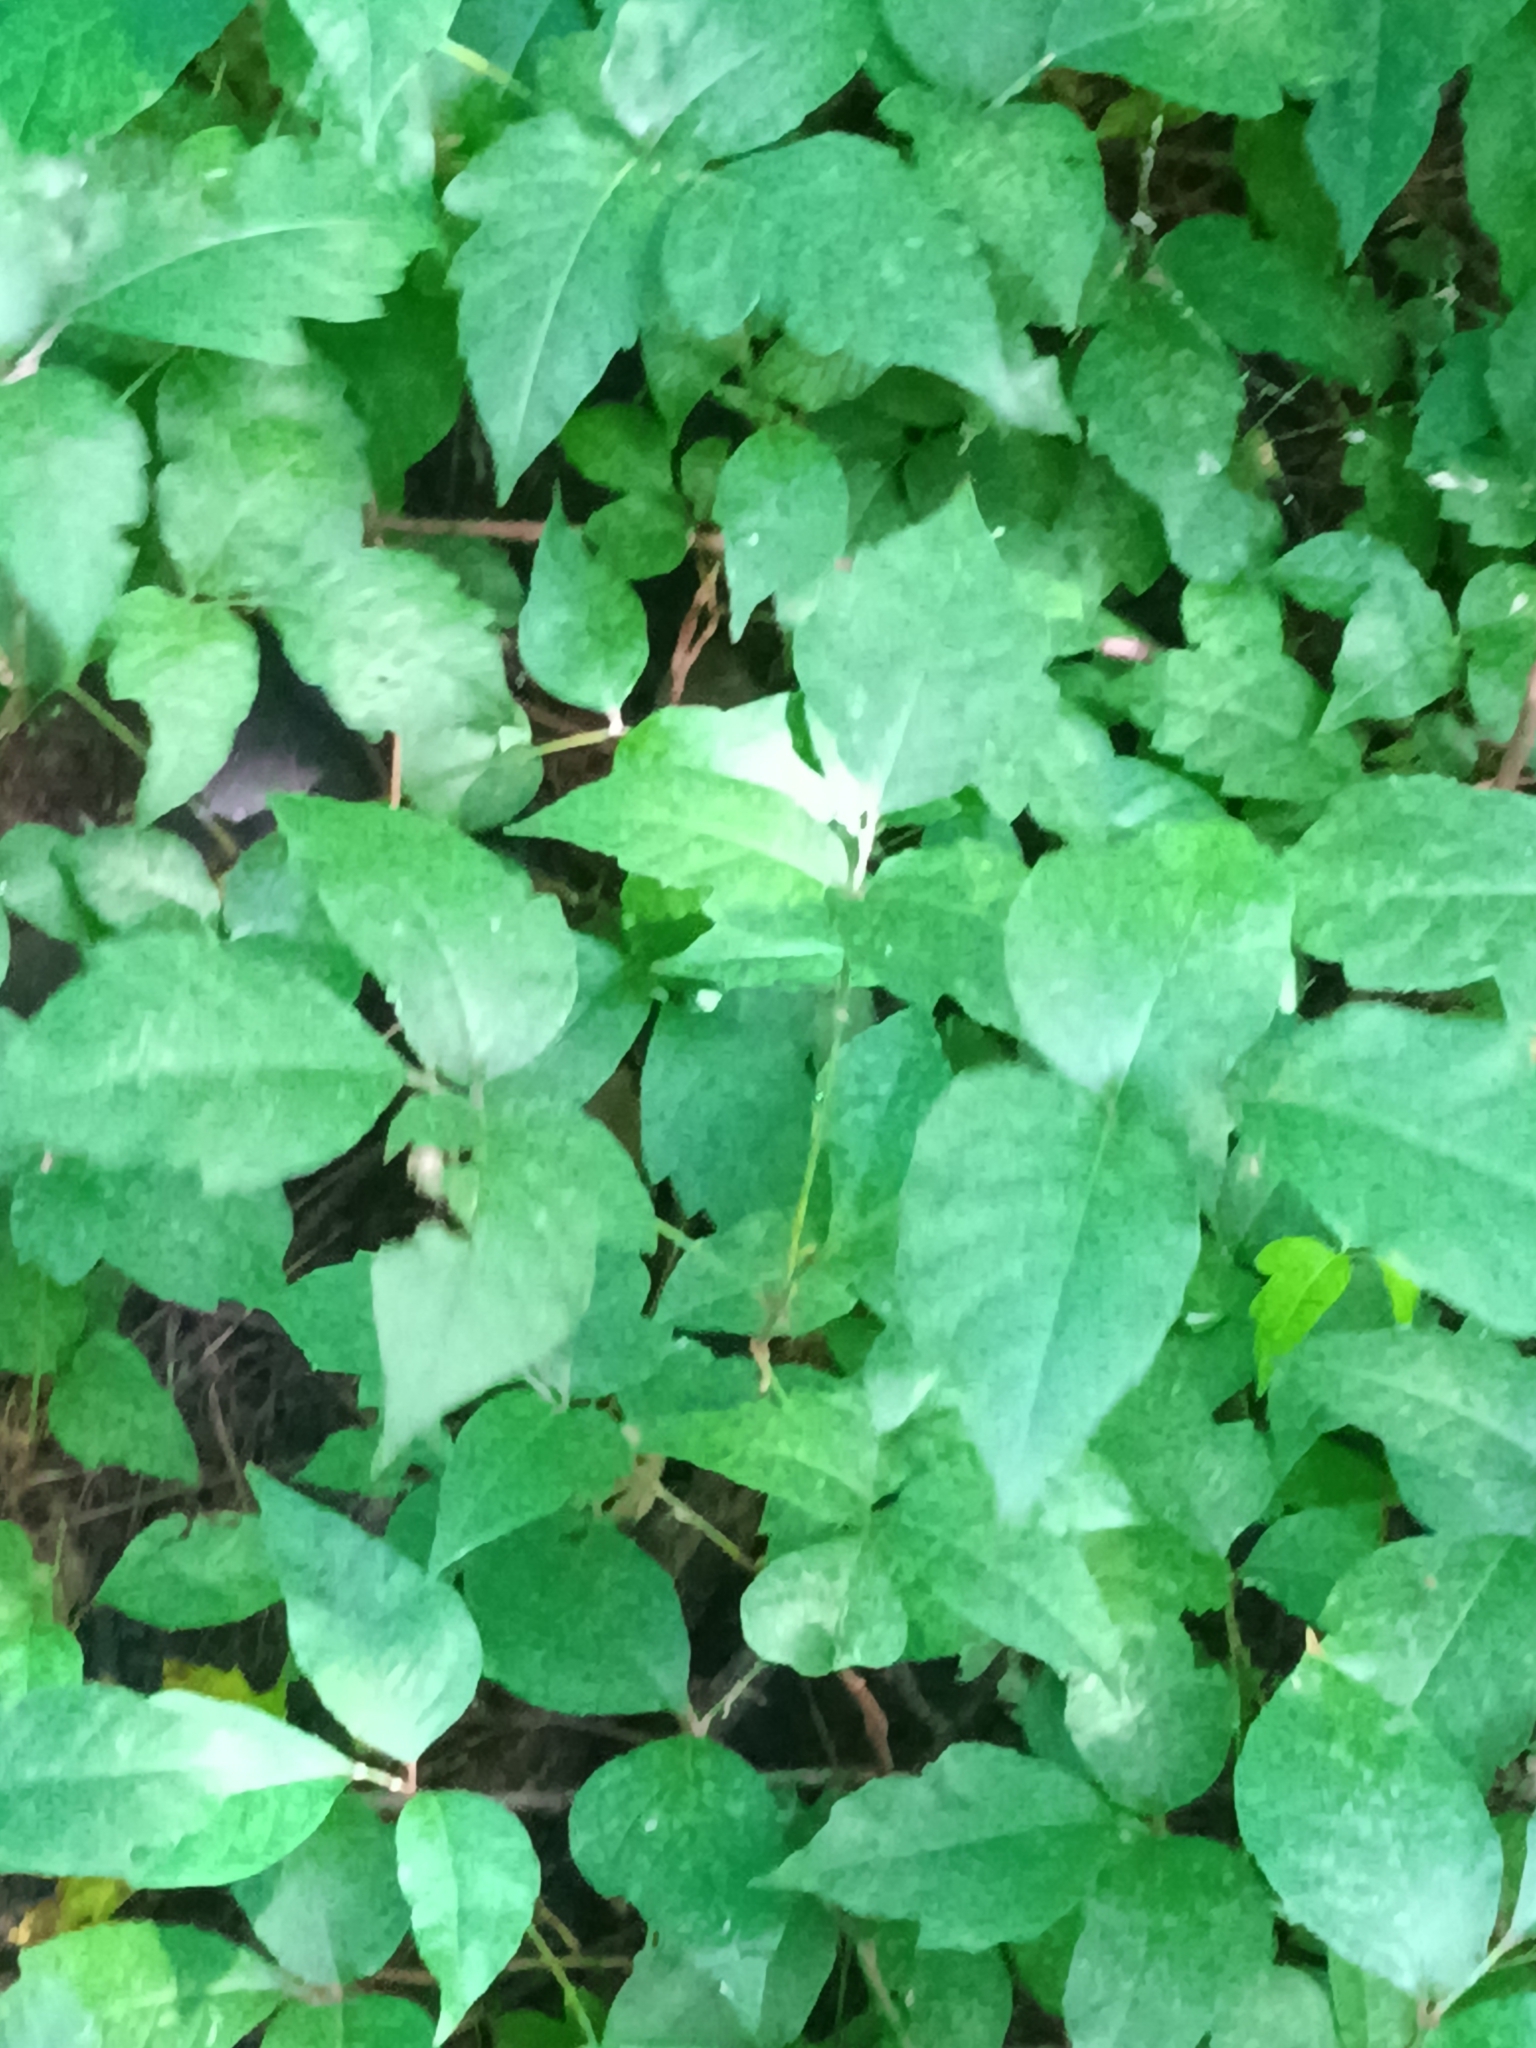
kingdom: Plantae
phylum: Tracheophyta
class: Magnoliopsida
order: Sapindales
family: Anacardiaceae
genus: Toxicodendron
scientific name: Toxicodendron radicans
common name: Poison ivy
